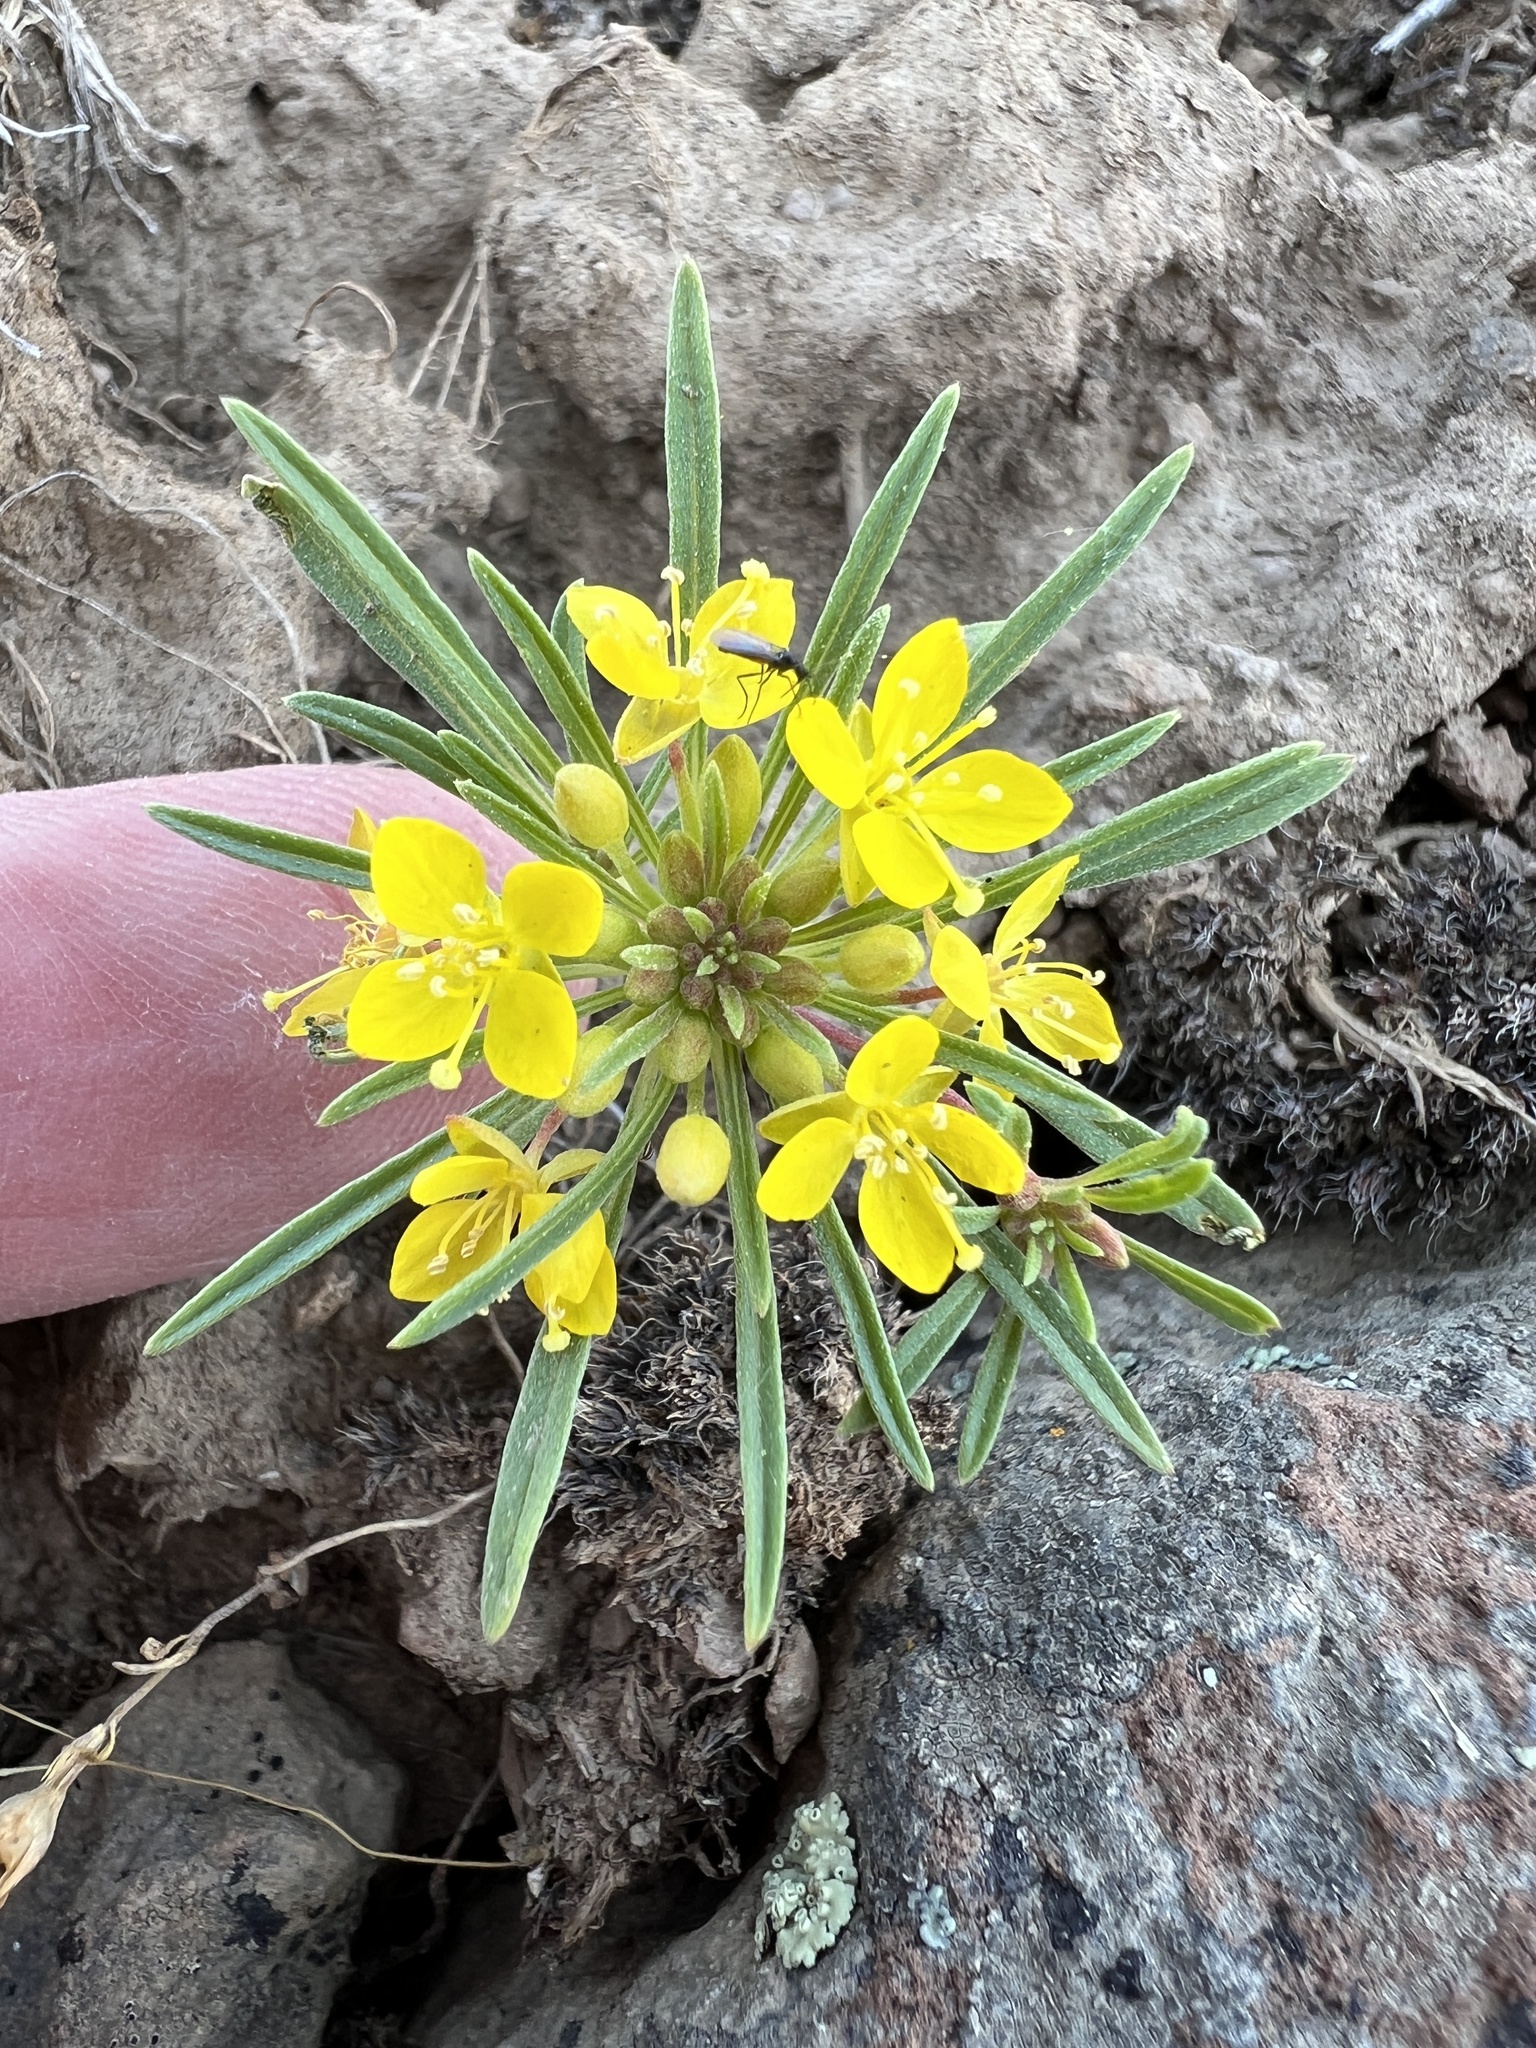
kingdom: Plantae
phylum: Tracheophyta
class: Magnoliopsida
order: Myrtales
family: Onagraceae
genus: Neoholmgrenia
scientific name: Neoholmgrenia hilgardii
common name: Hilgard's suncup
